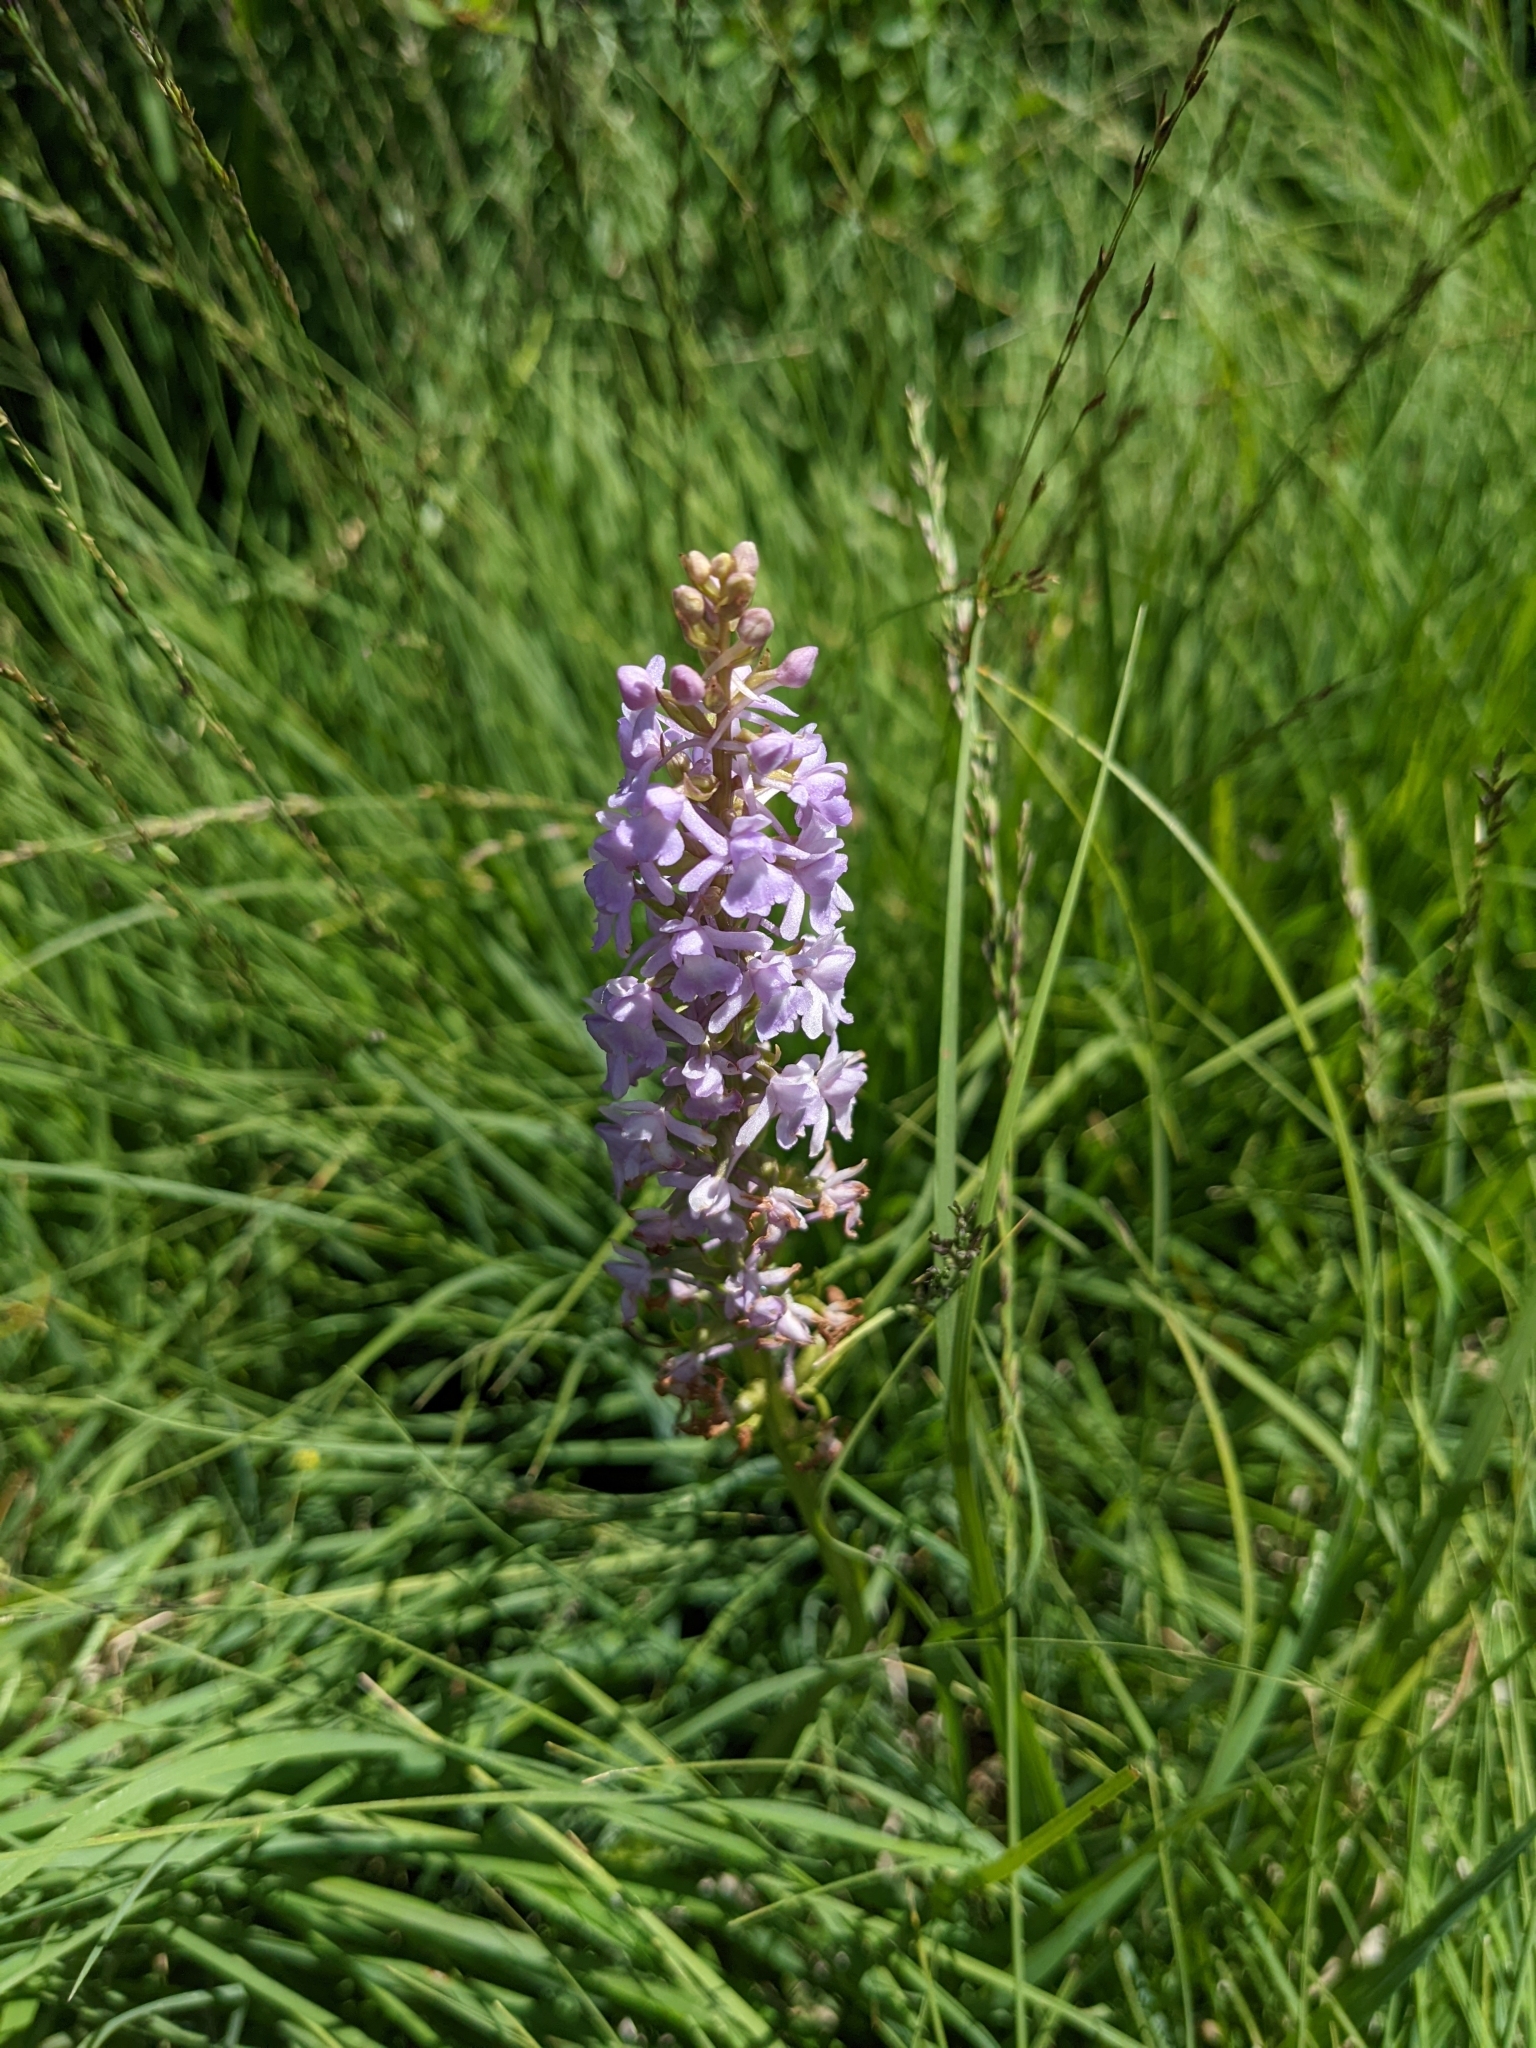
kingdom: Plantae
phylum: Tracheophyta
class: Liliopsida
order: Asparagales
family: Orchidaceae
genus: Gymnadenia
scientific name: Gymnadenia conopsea
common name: Fragrant orchid
